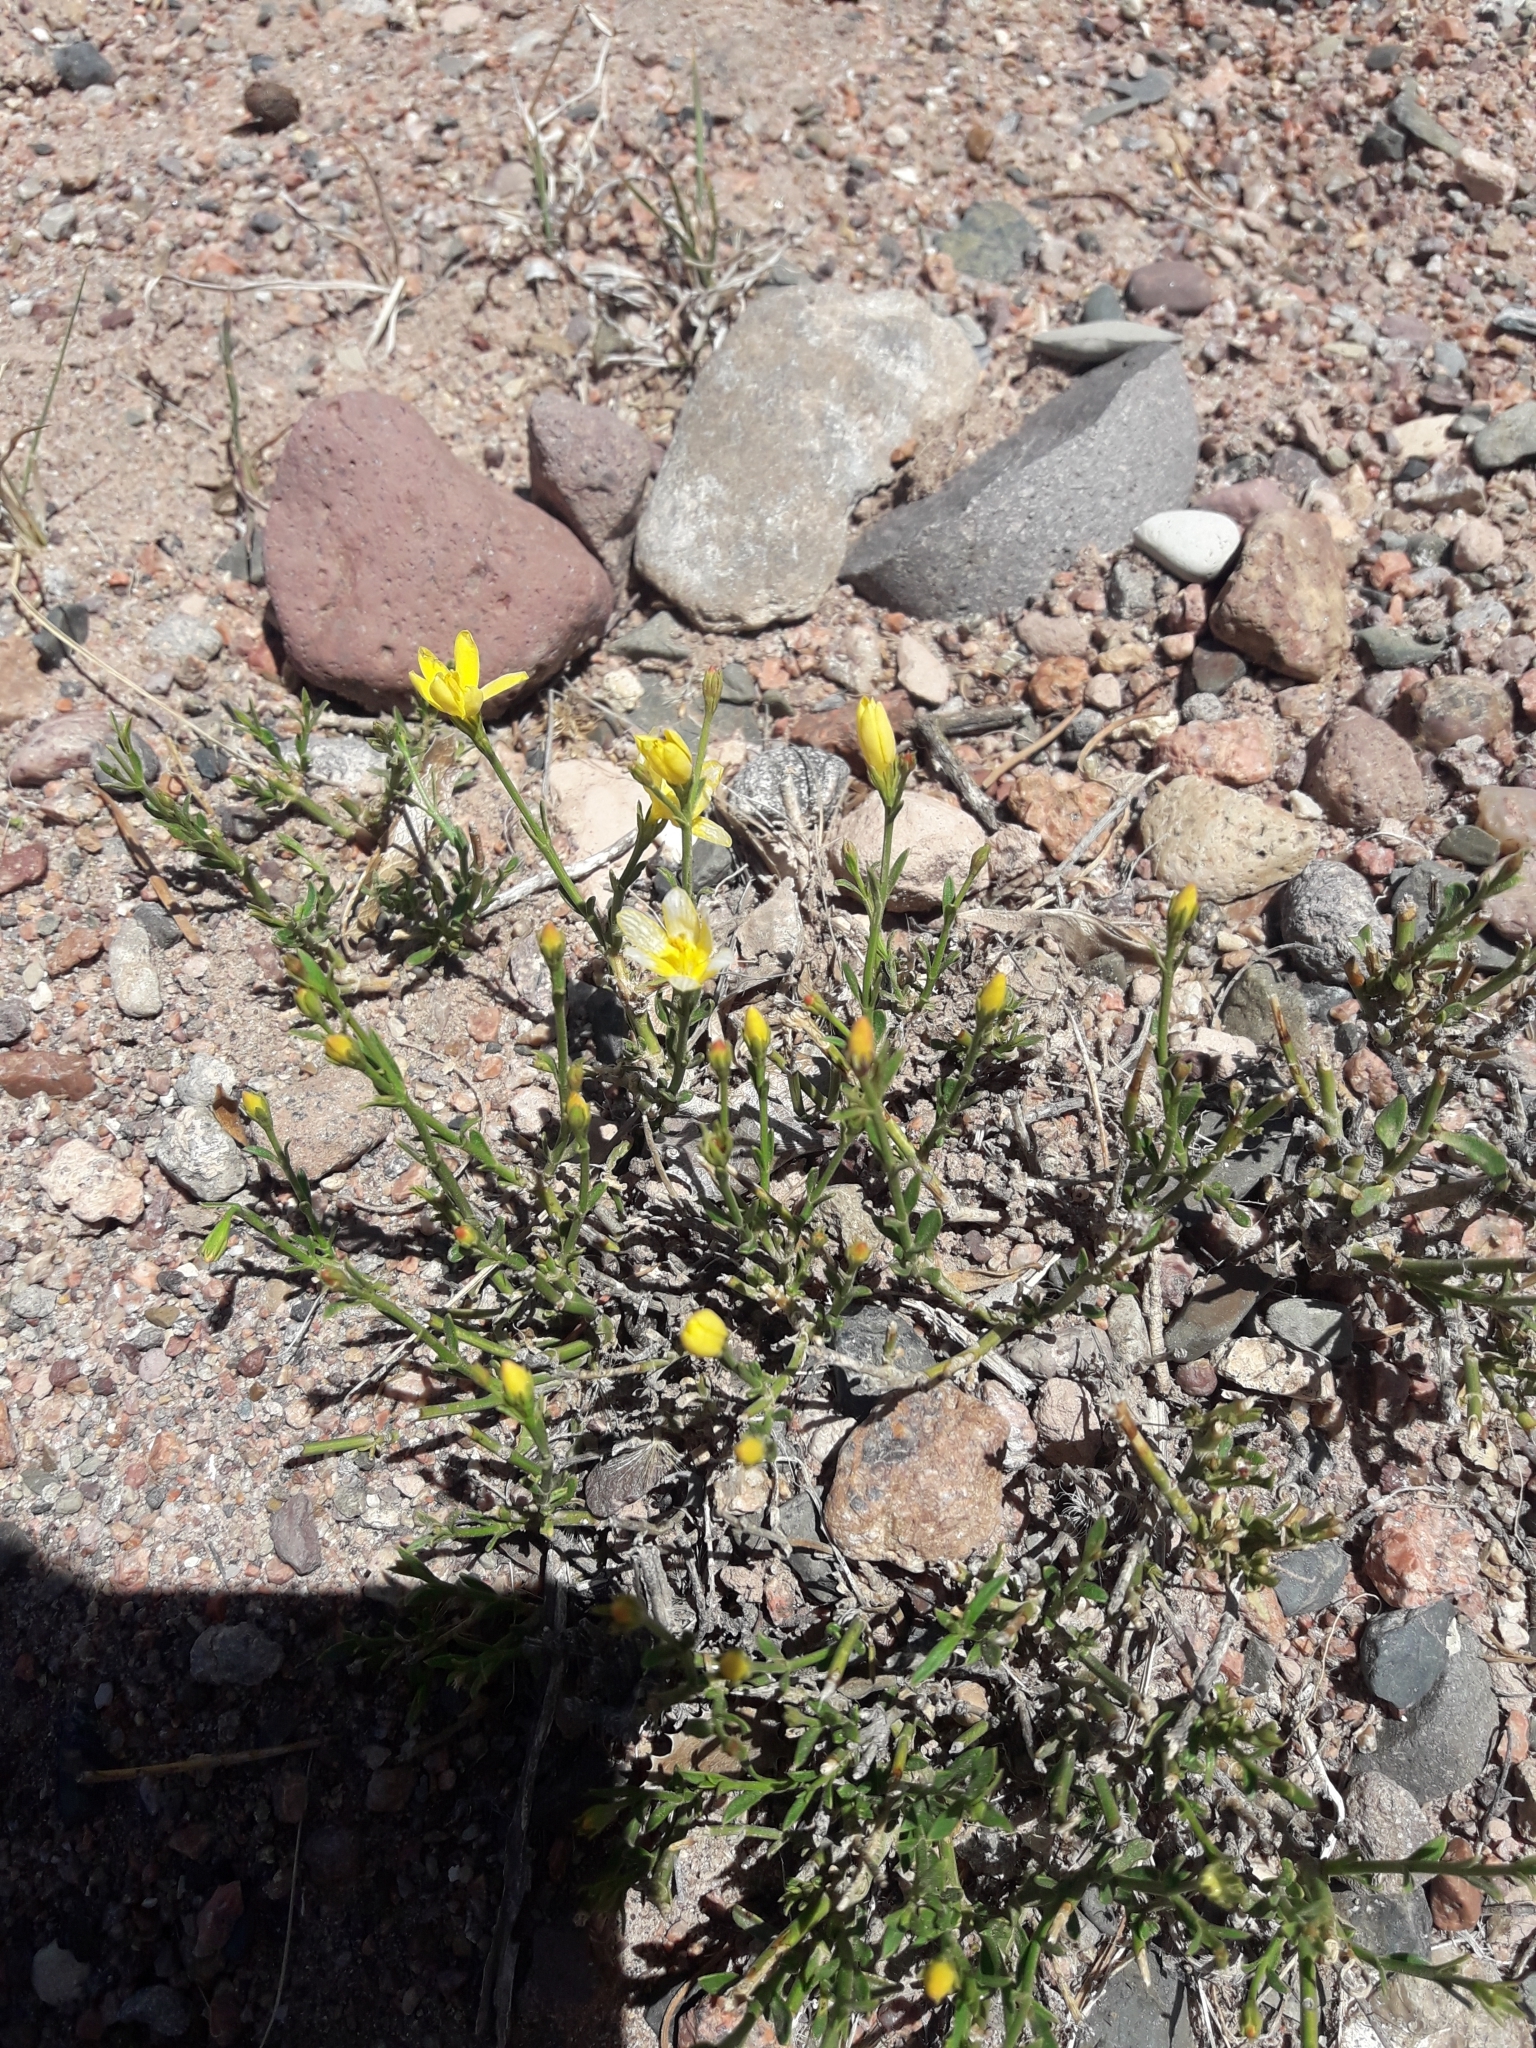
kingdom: Plantae
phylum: Tracheophyta
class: Magnoliopsida
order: Lamiales
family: Oleaceae
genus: Menodora
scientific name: Menodora decemfida
